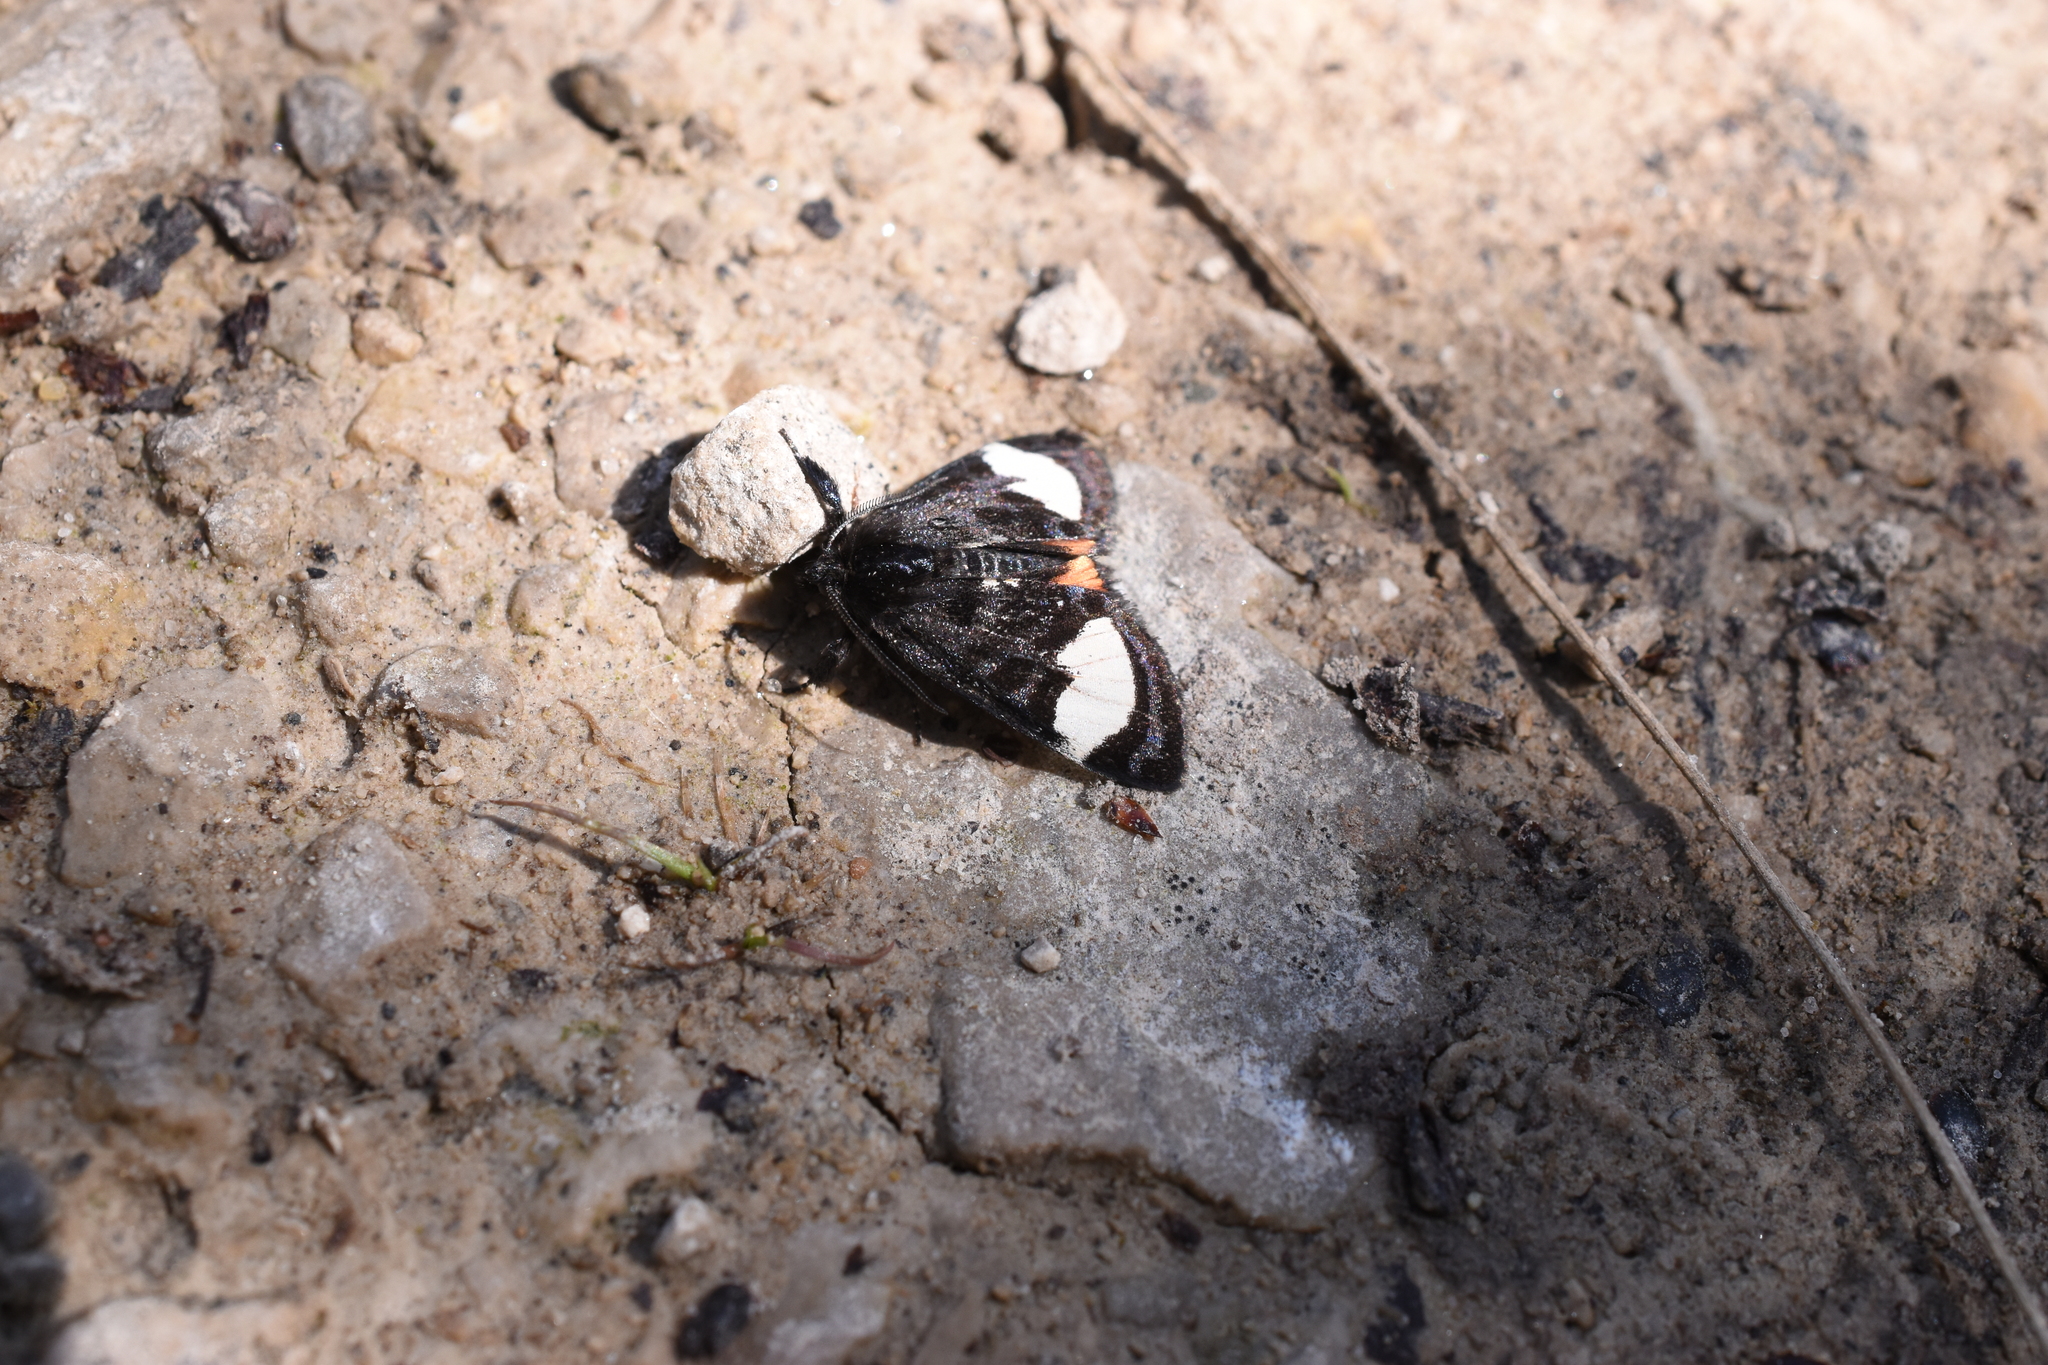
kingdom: Animalia
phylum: Arthropoda
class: Insecta
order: Lepidoptera
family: Noctuidae
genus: Psychomorpha
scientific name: Psychomorpha epimenis
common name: Grapevine epimenis moth
